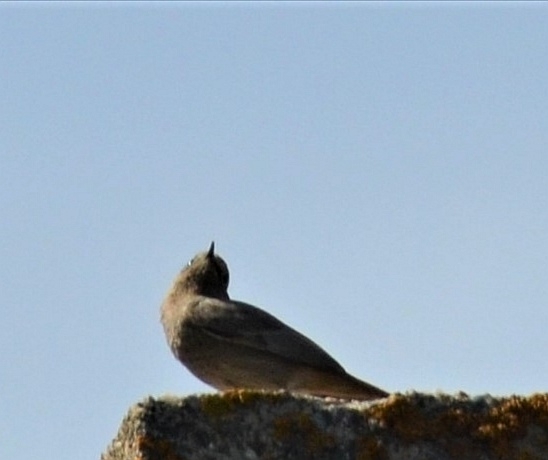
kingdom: Animalia
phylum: Chordata
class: Aves
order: Passeriformes
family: Muscicapidae
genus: Phoenicurus
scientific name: Phoenicurus ochruros
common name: Black redstart
